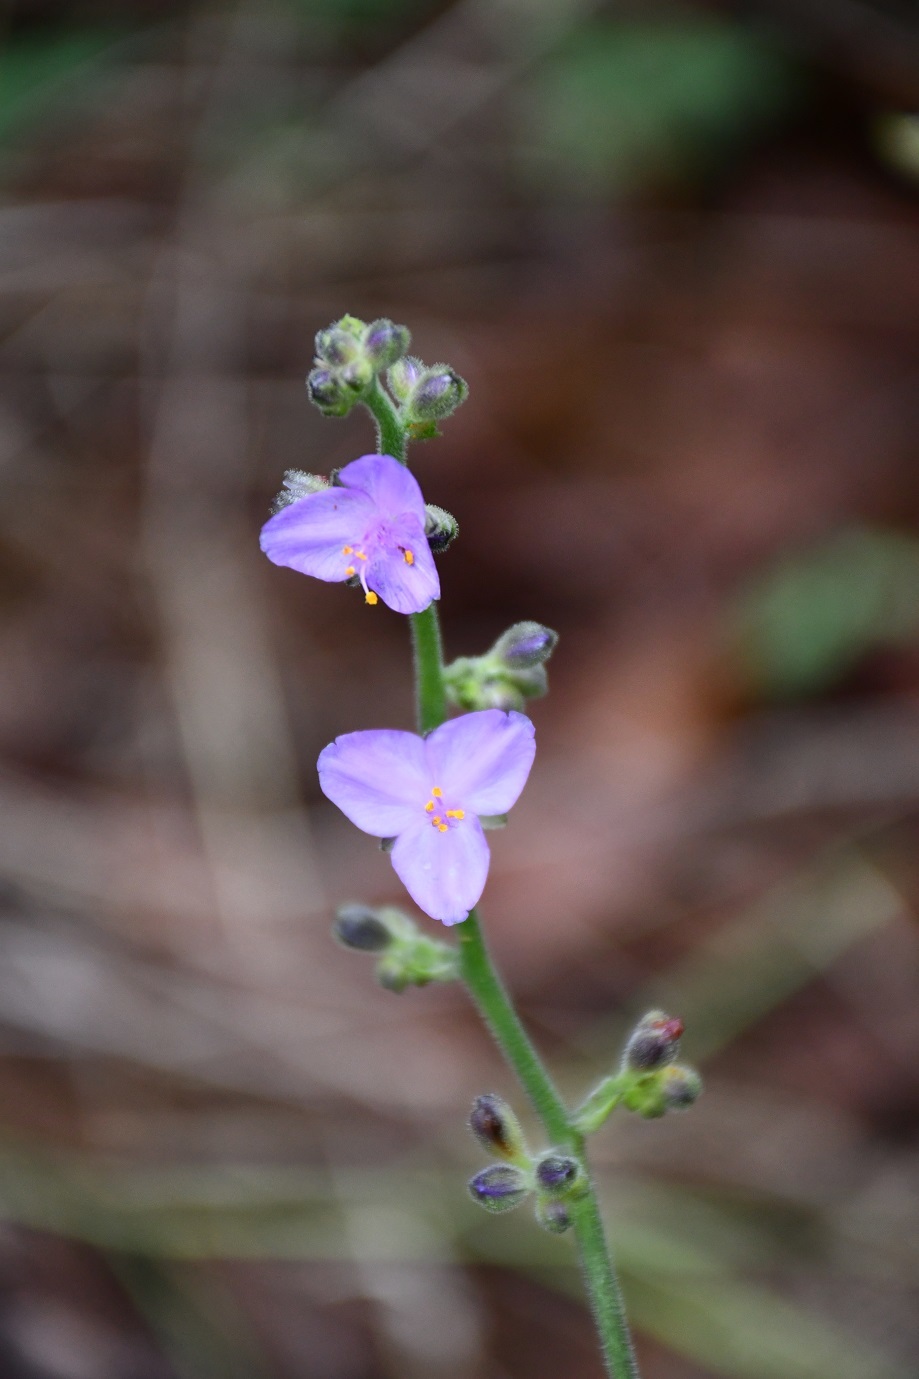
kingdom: Plantae
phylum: Tracheophyta
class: Liliopsida
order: Commelinales
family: Commelinaceae
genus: Thyrsanthemum
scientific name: Thyrsanthemum floribundum
